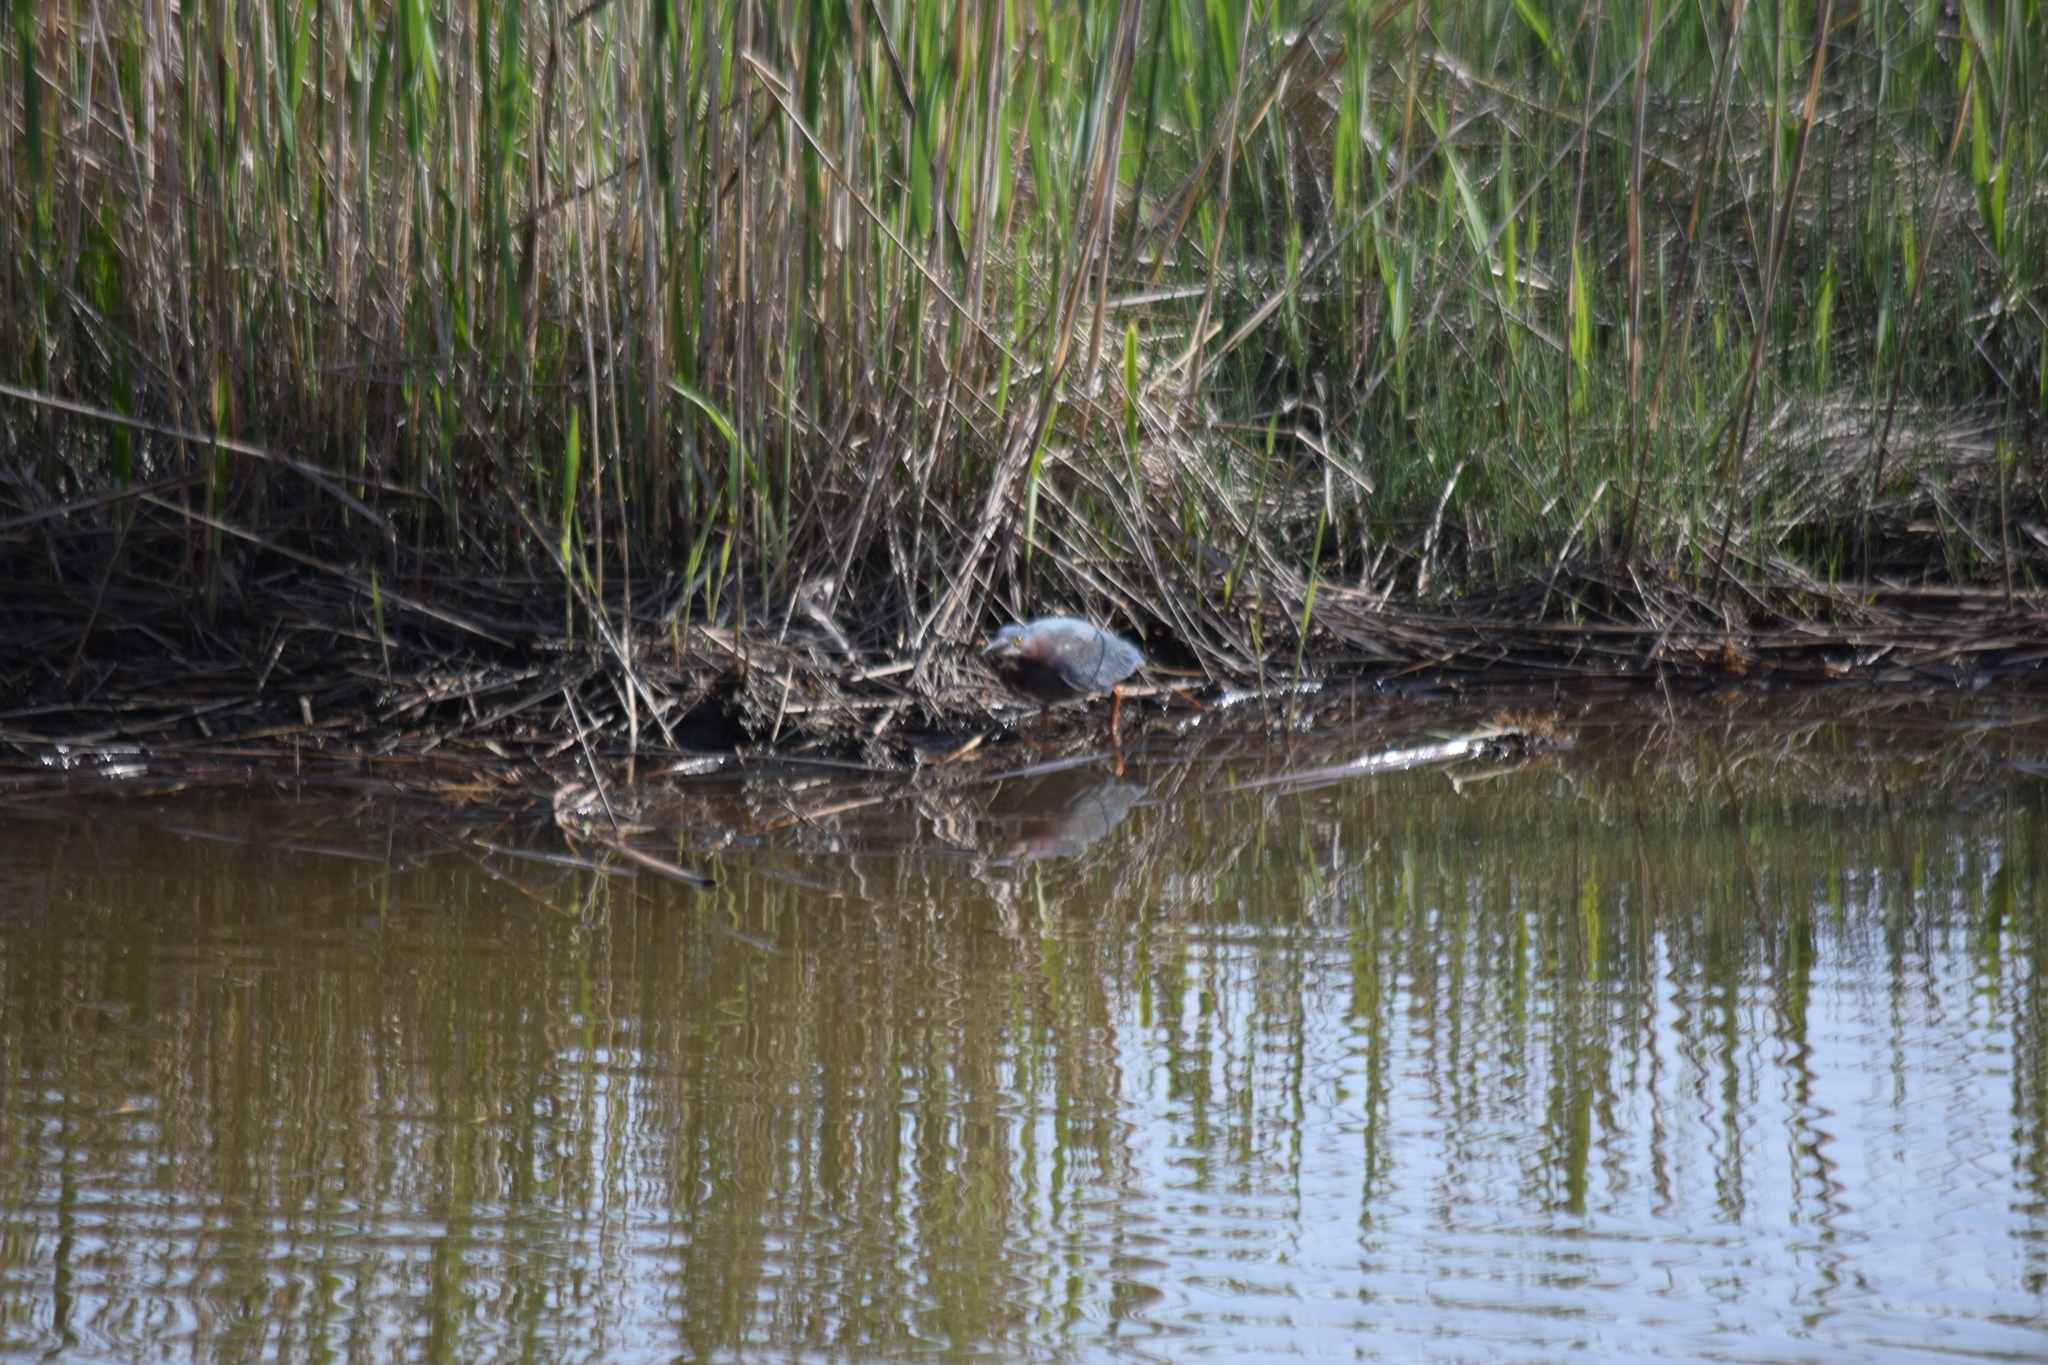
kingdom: Animalia
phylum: Chordata
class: Aves
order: Pelecaniformes
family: Ardeidae
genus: Butorides
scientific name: Butorides virescens
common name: Green heron
